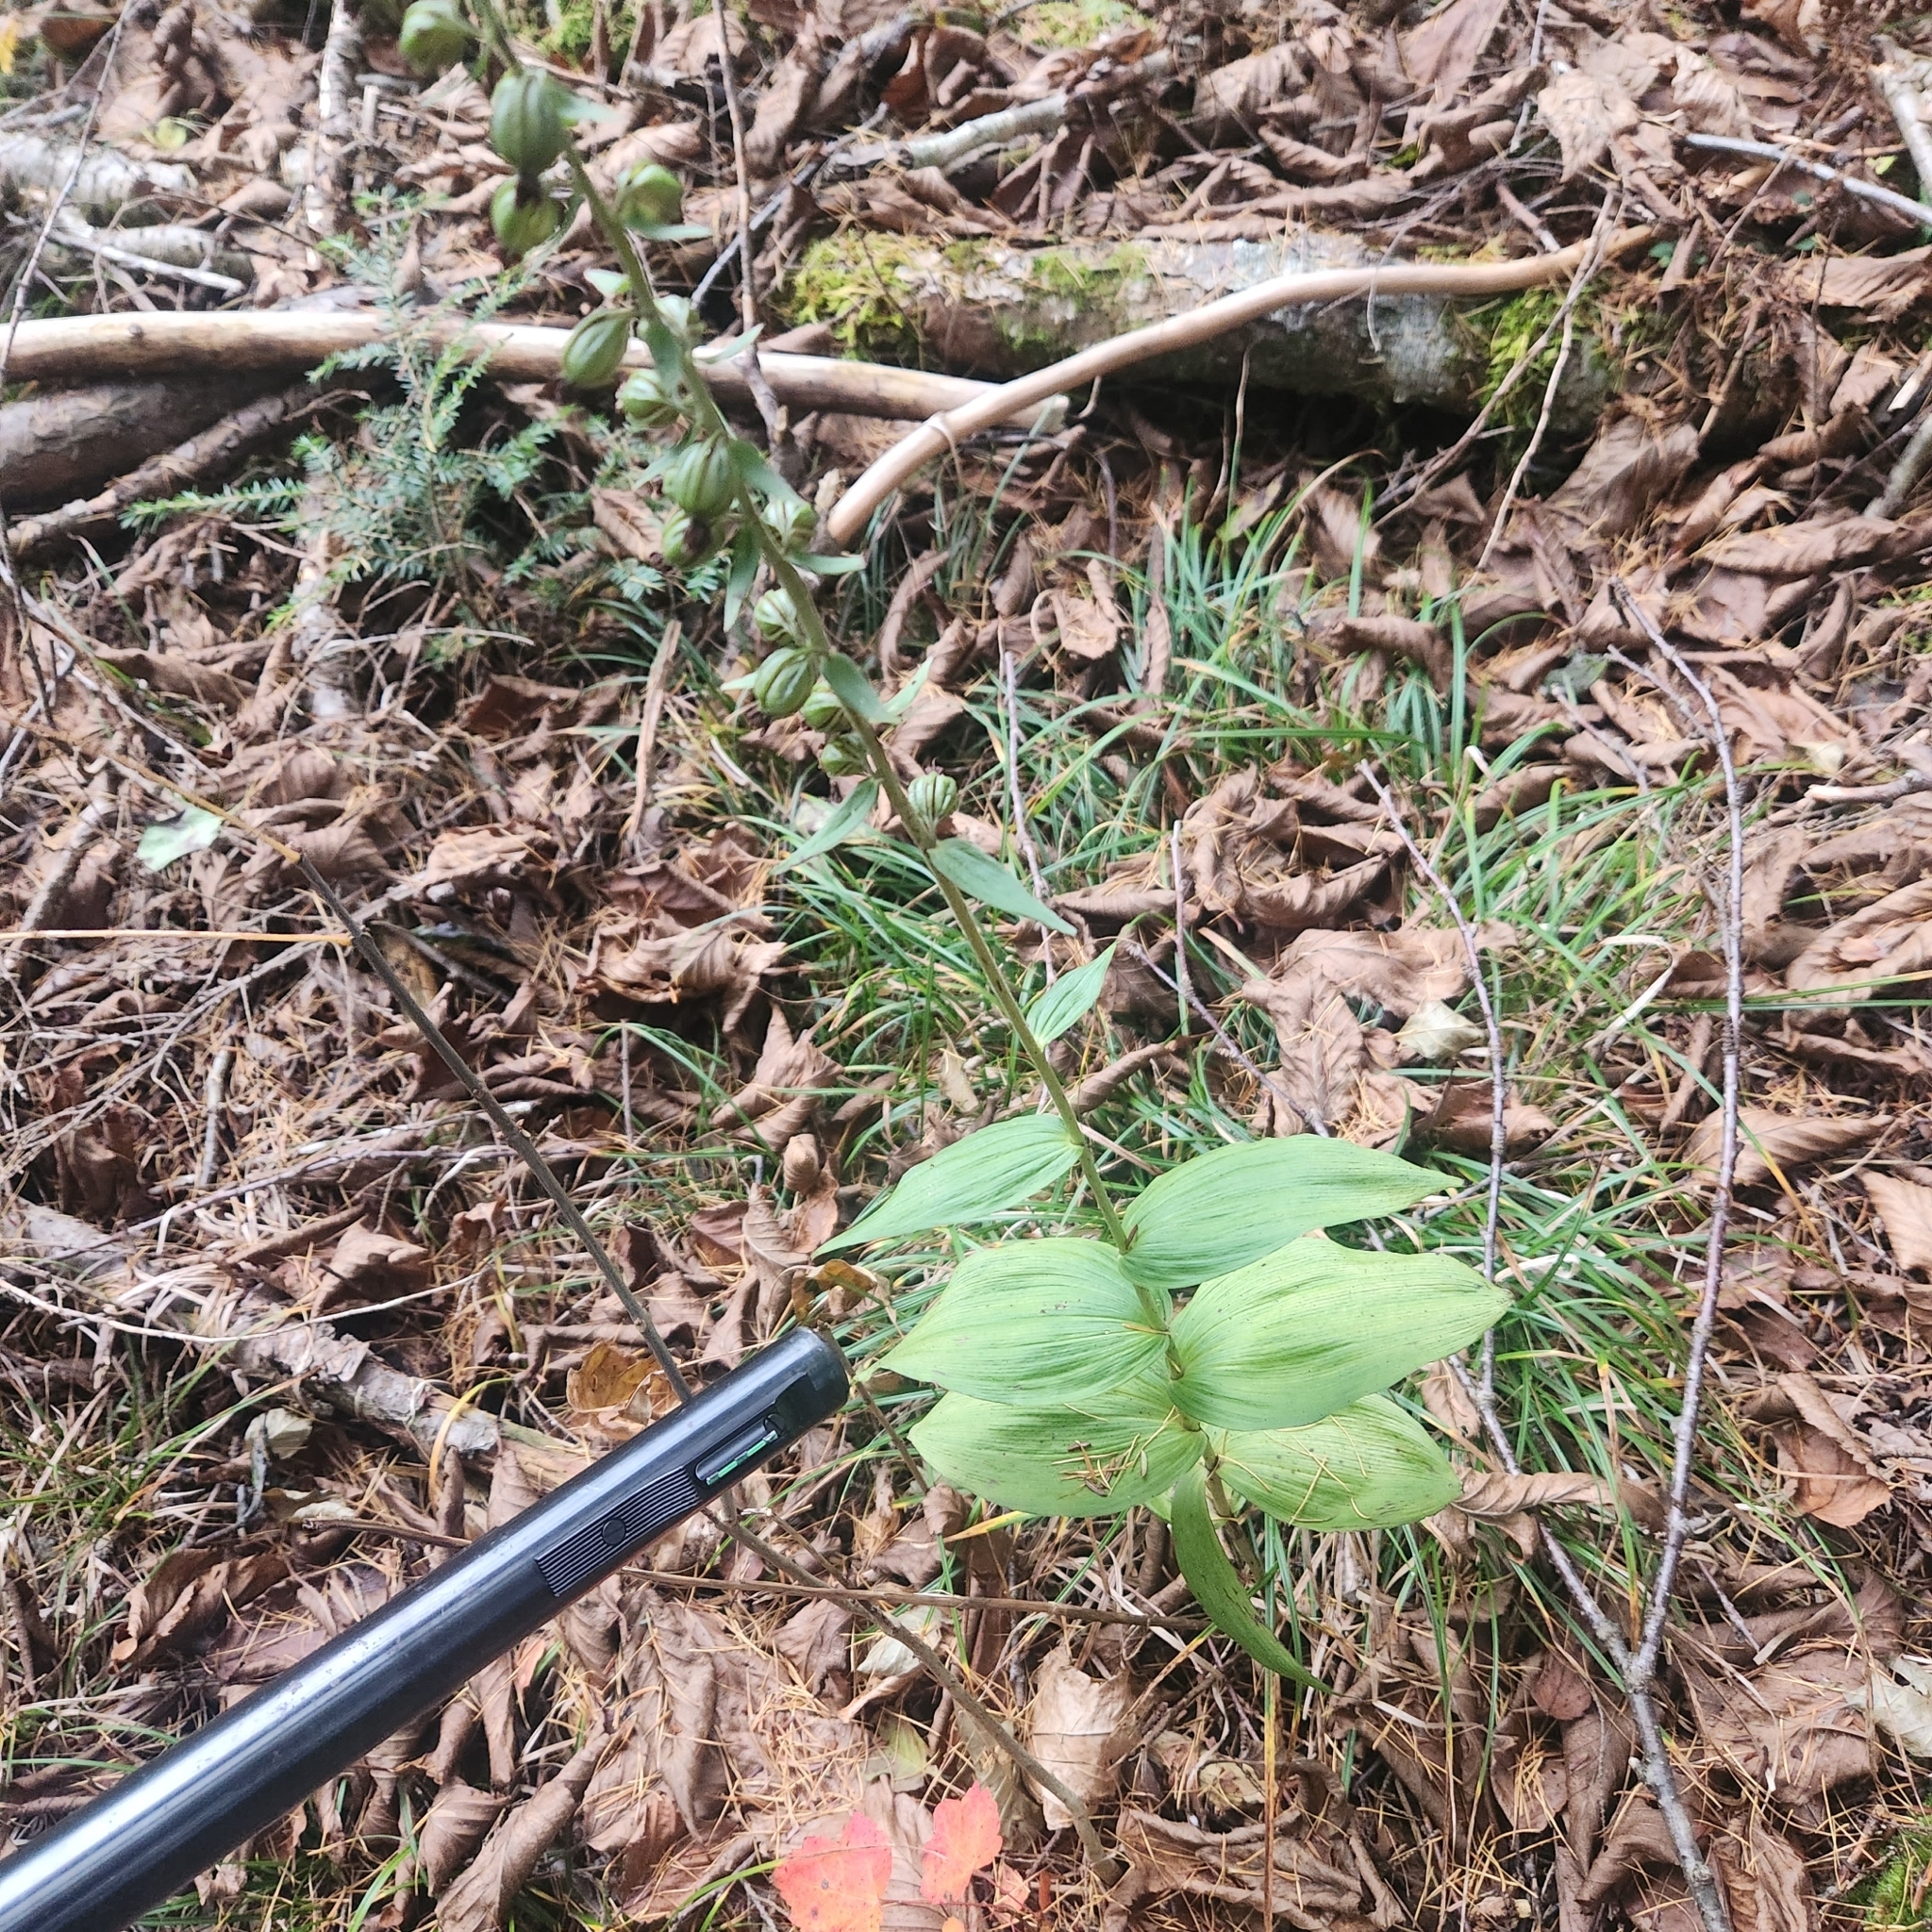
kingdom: Plantae
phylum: Tracheophyta
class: Liliopsida
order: Asparagales
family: Orchidaceae
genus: Epipactis
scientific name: Epipactis helleborine
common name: Broad-leaved helleborine
